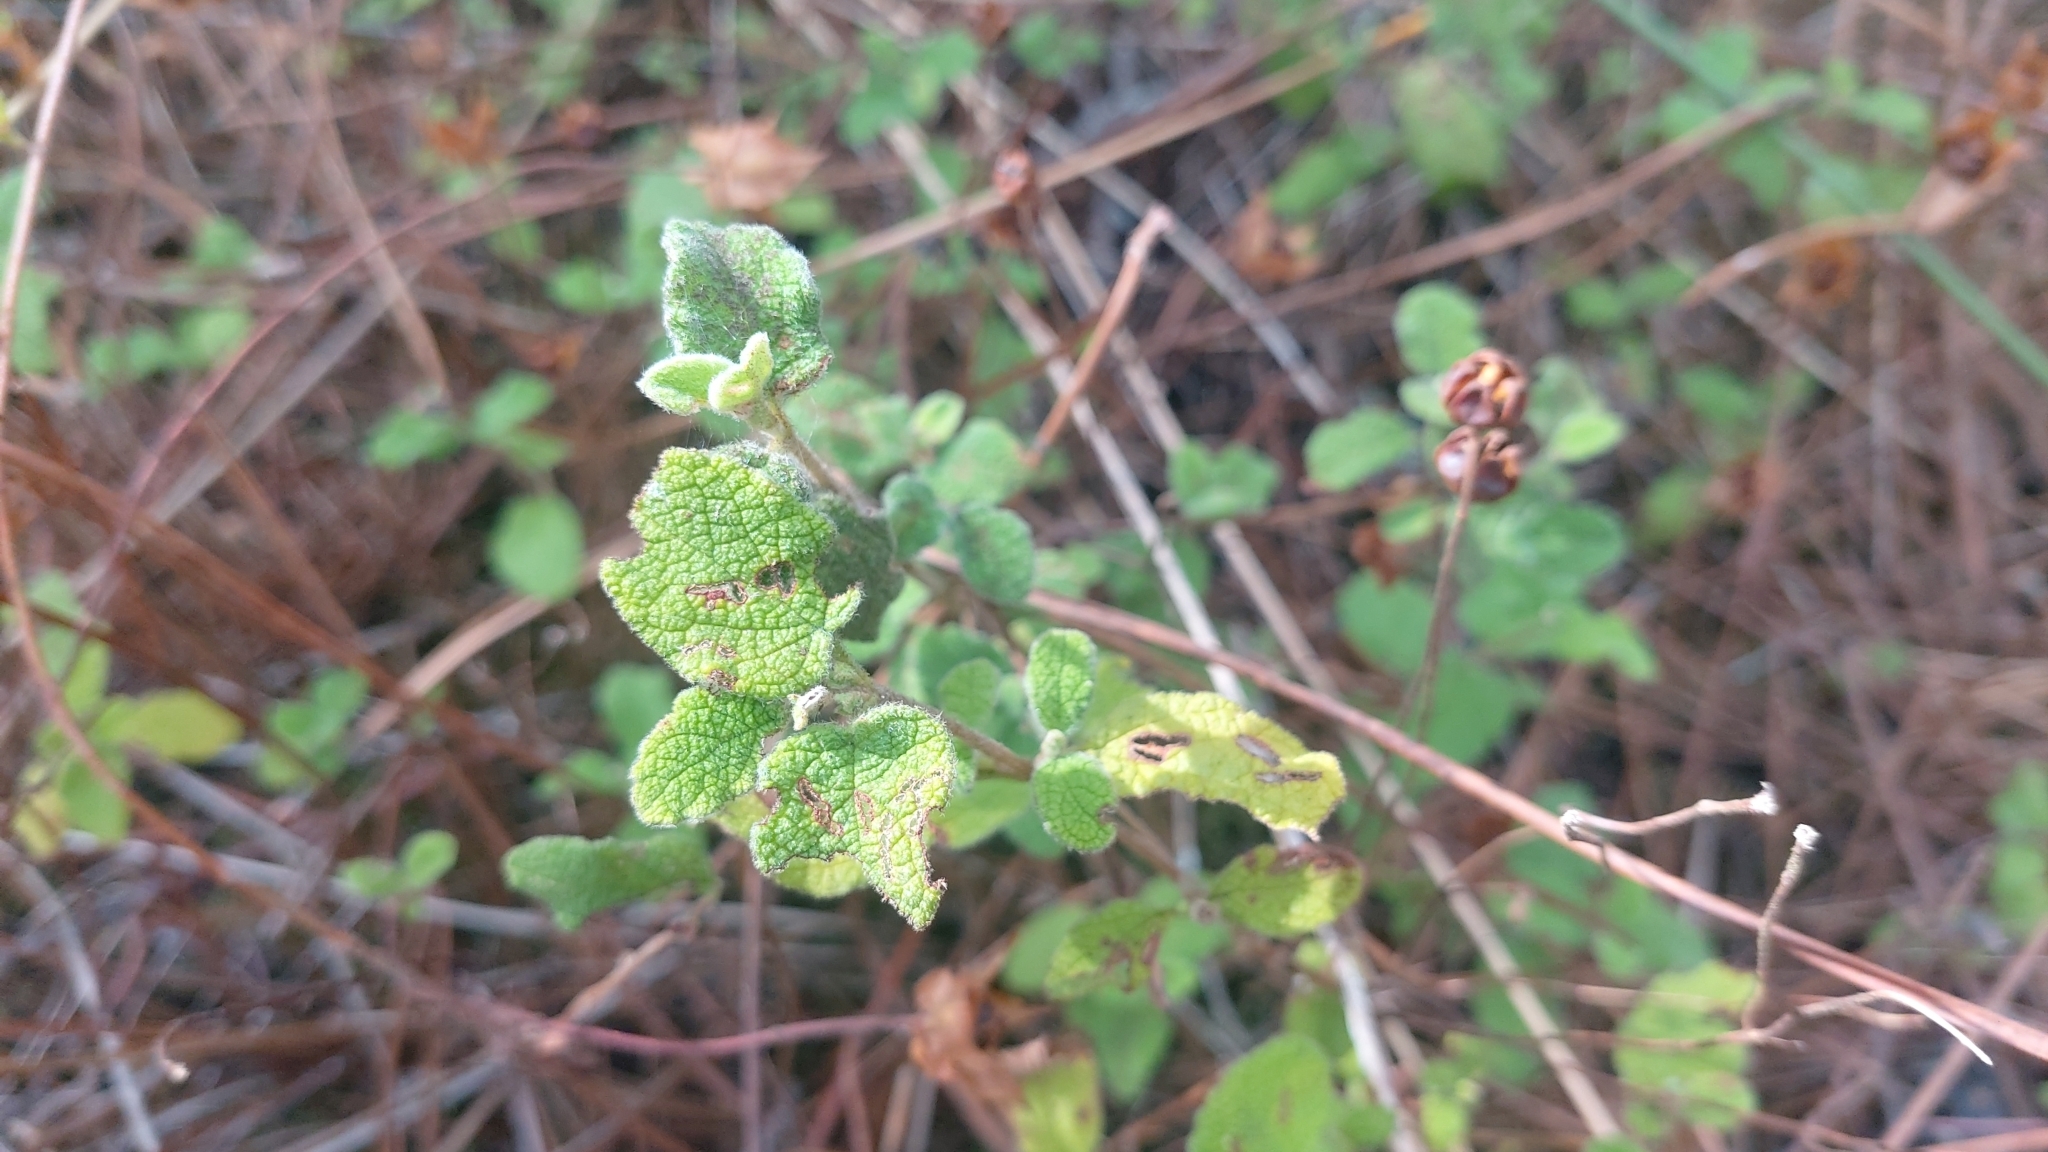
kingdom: Plantae
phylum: Tracheophyta
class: Magnoliopsida
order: Malvales
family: Cistaceae
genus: Cistus
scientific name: Cistus salviifolius
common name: Salvia cistus
